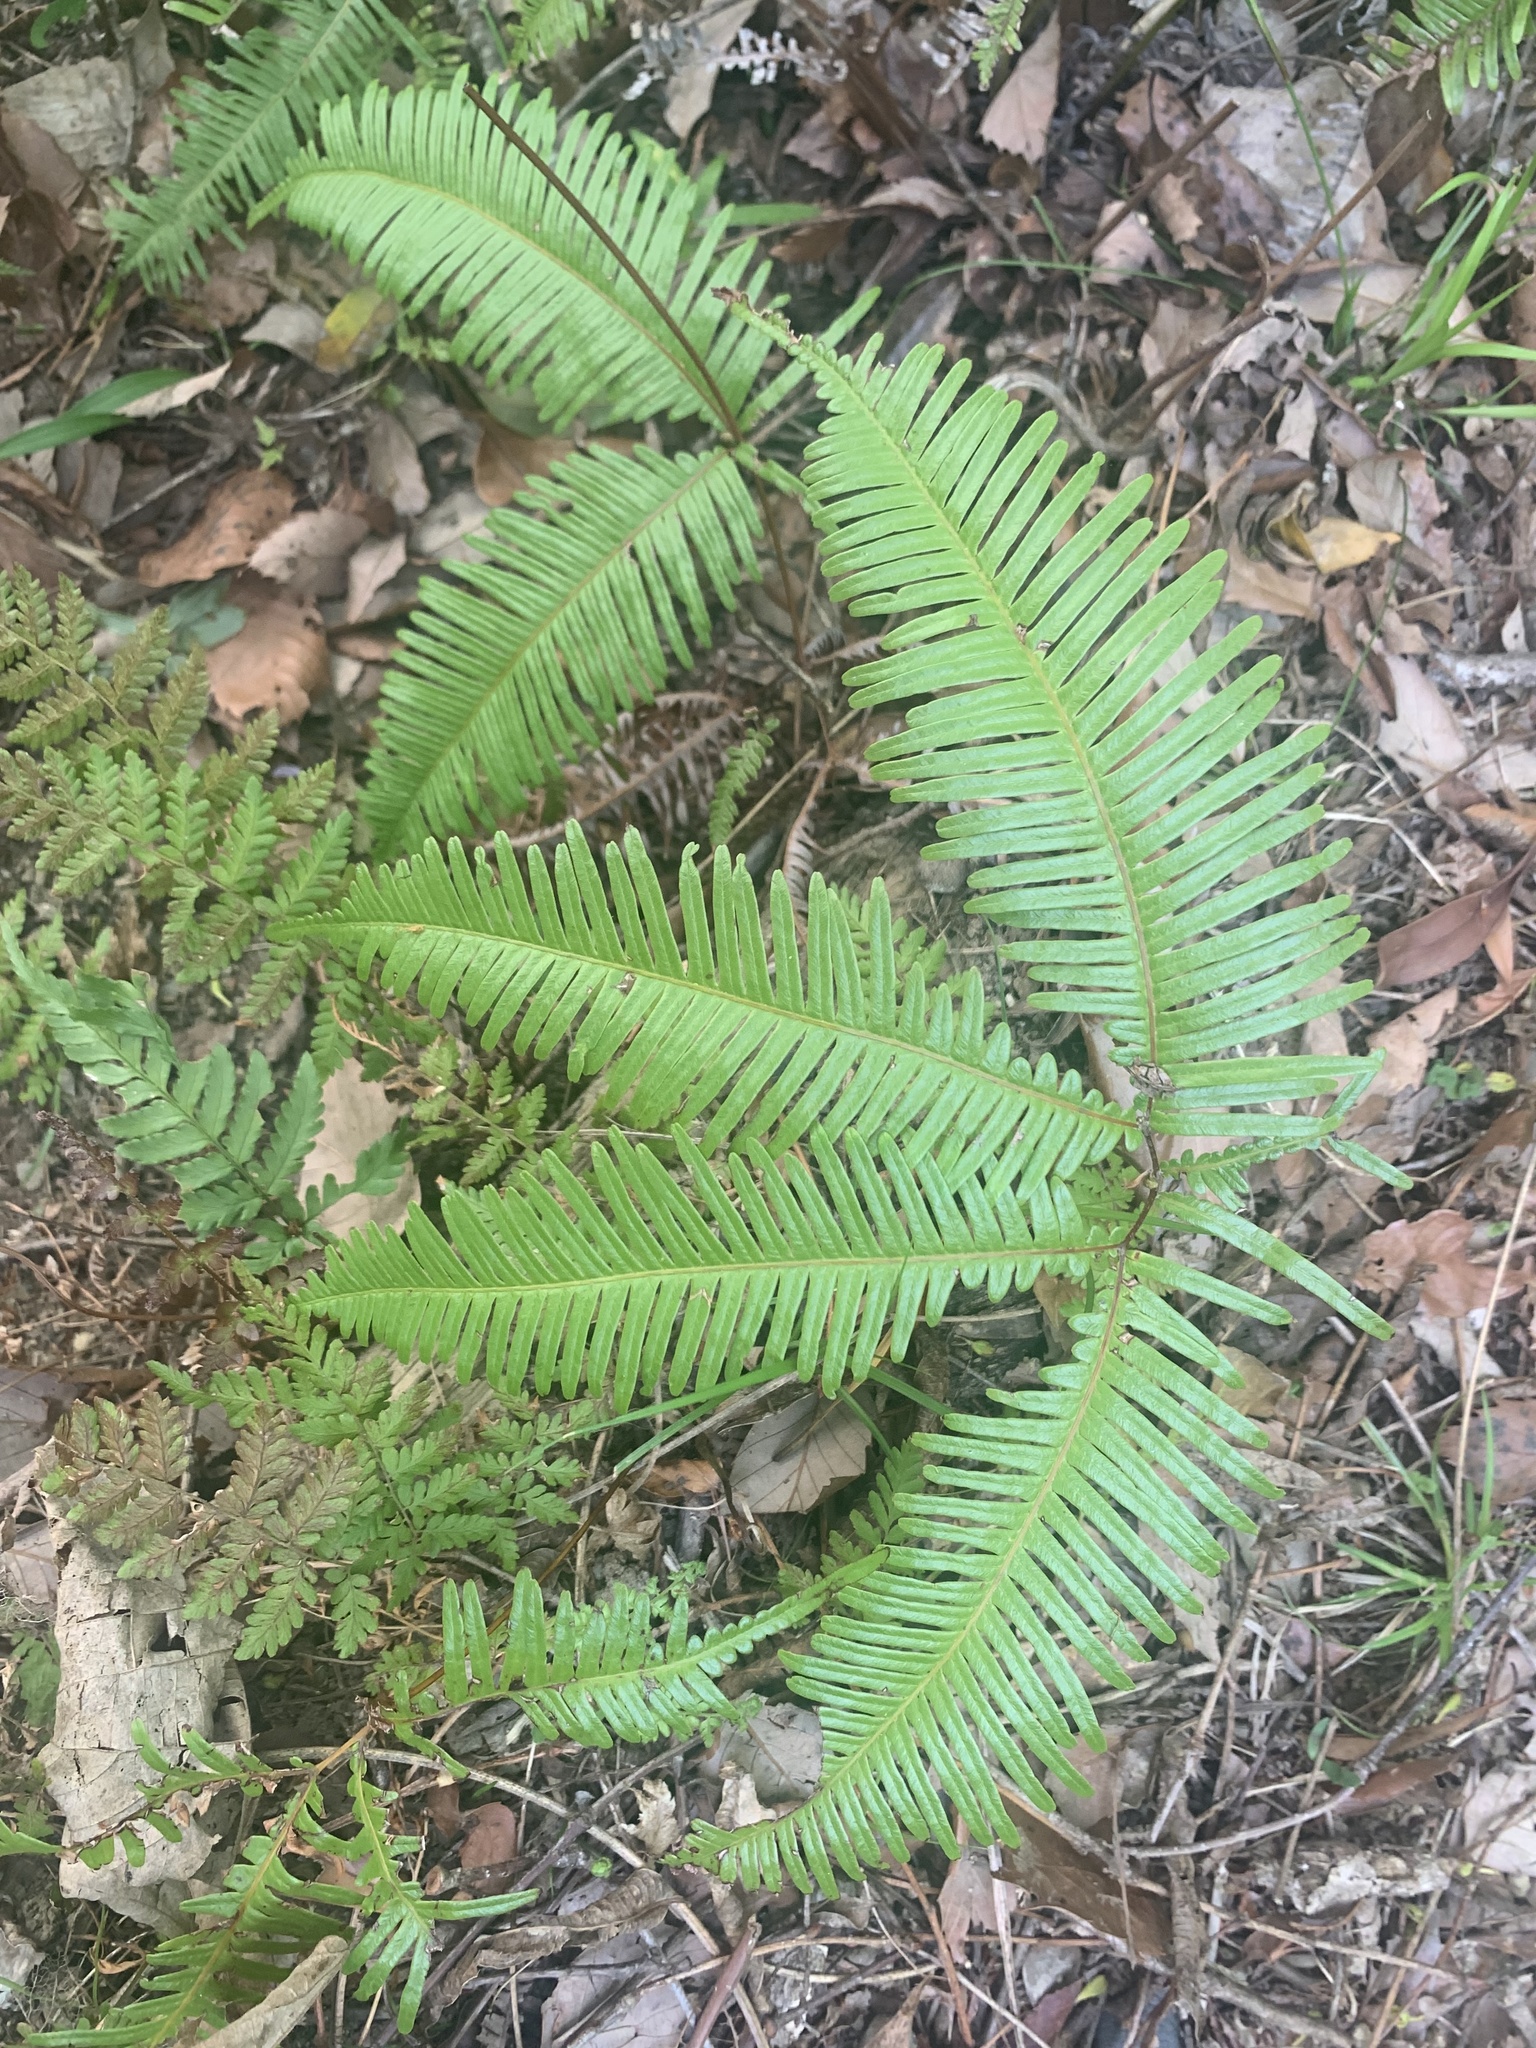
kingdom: Plantae
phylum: Tracheophyta
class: Polypodiopsida
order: Gleicheniales
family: Gleicheniaceae
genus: Dicranopteris
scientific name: Dicranopteris linearis
